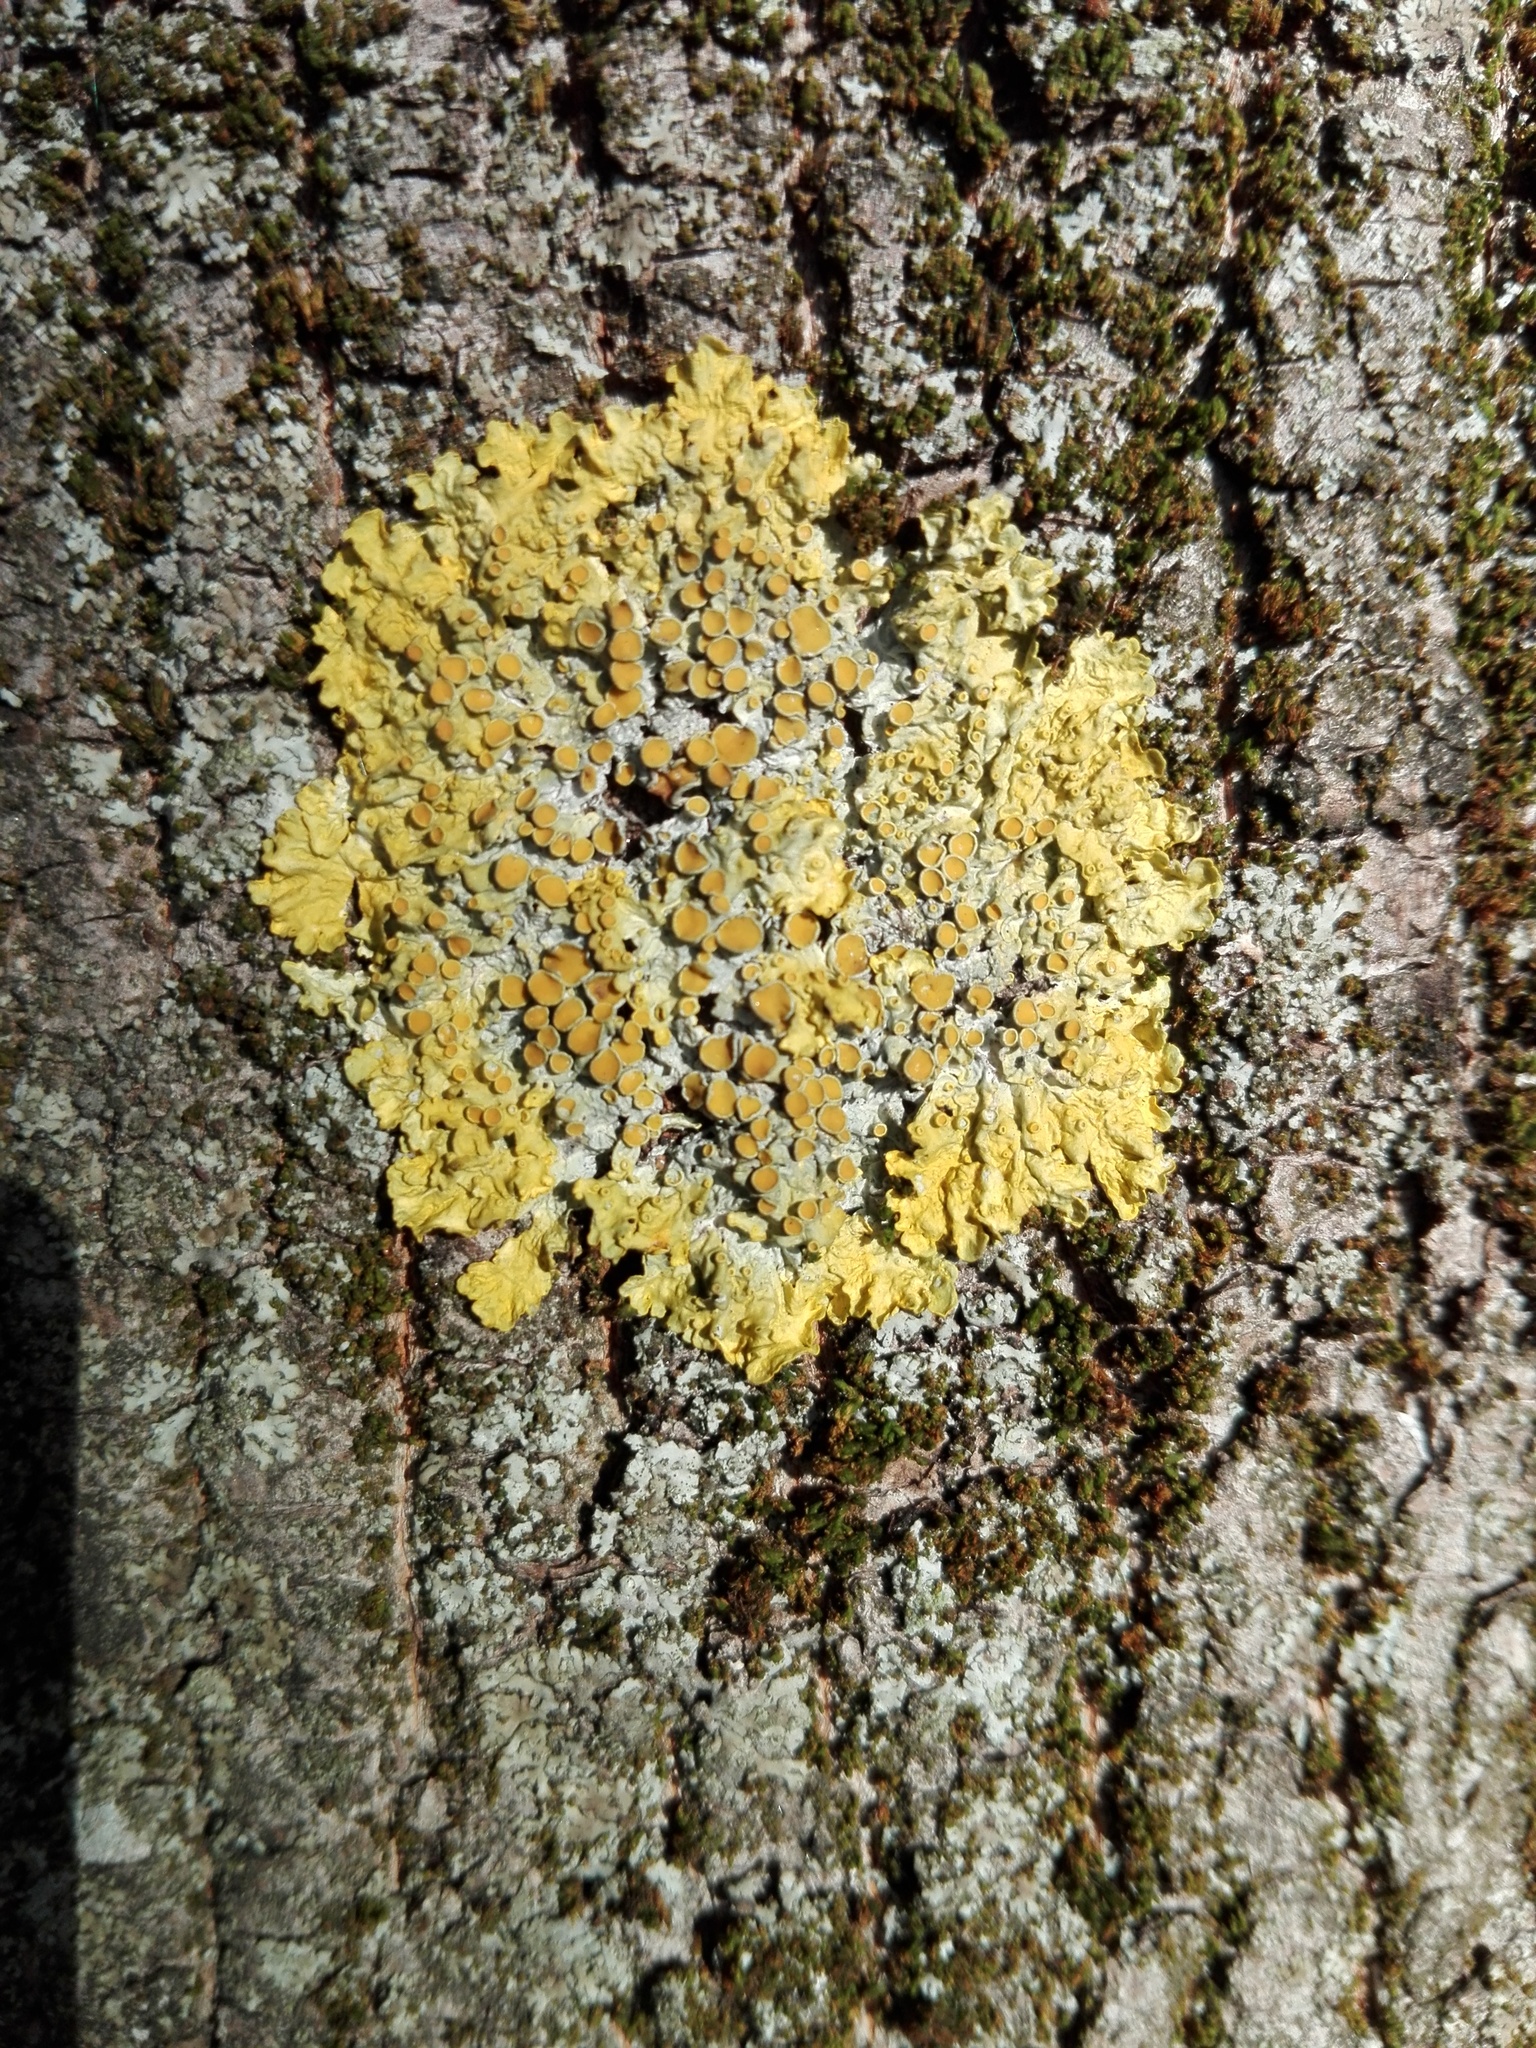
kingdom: Fungi
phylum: Ascomycota
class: Lecanoromycetes
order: Teloschistales
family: Teloschistaceae
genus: Xanthoria
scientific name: Xanthoria parietina
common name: Common orange lichen
